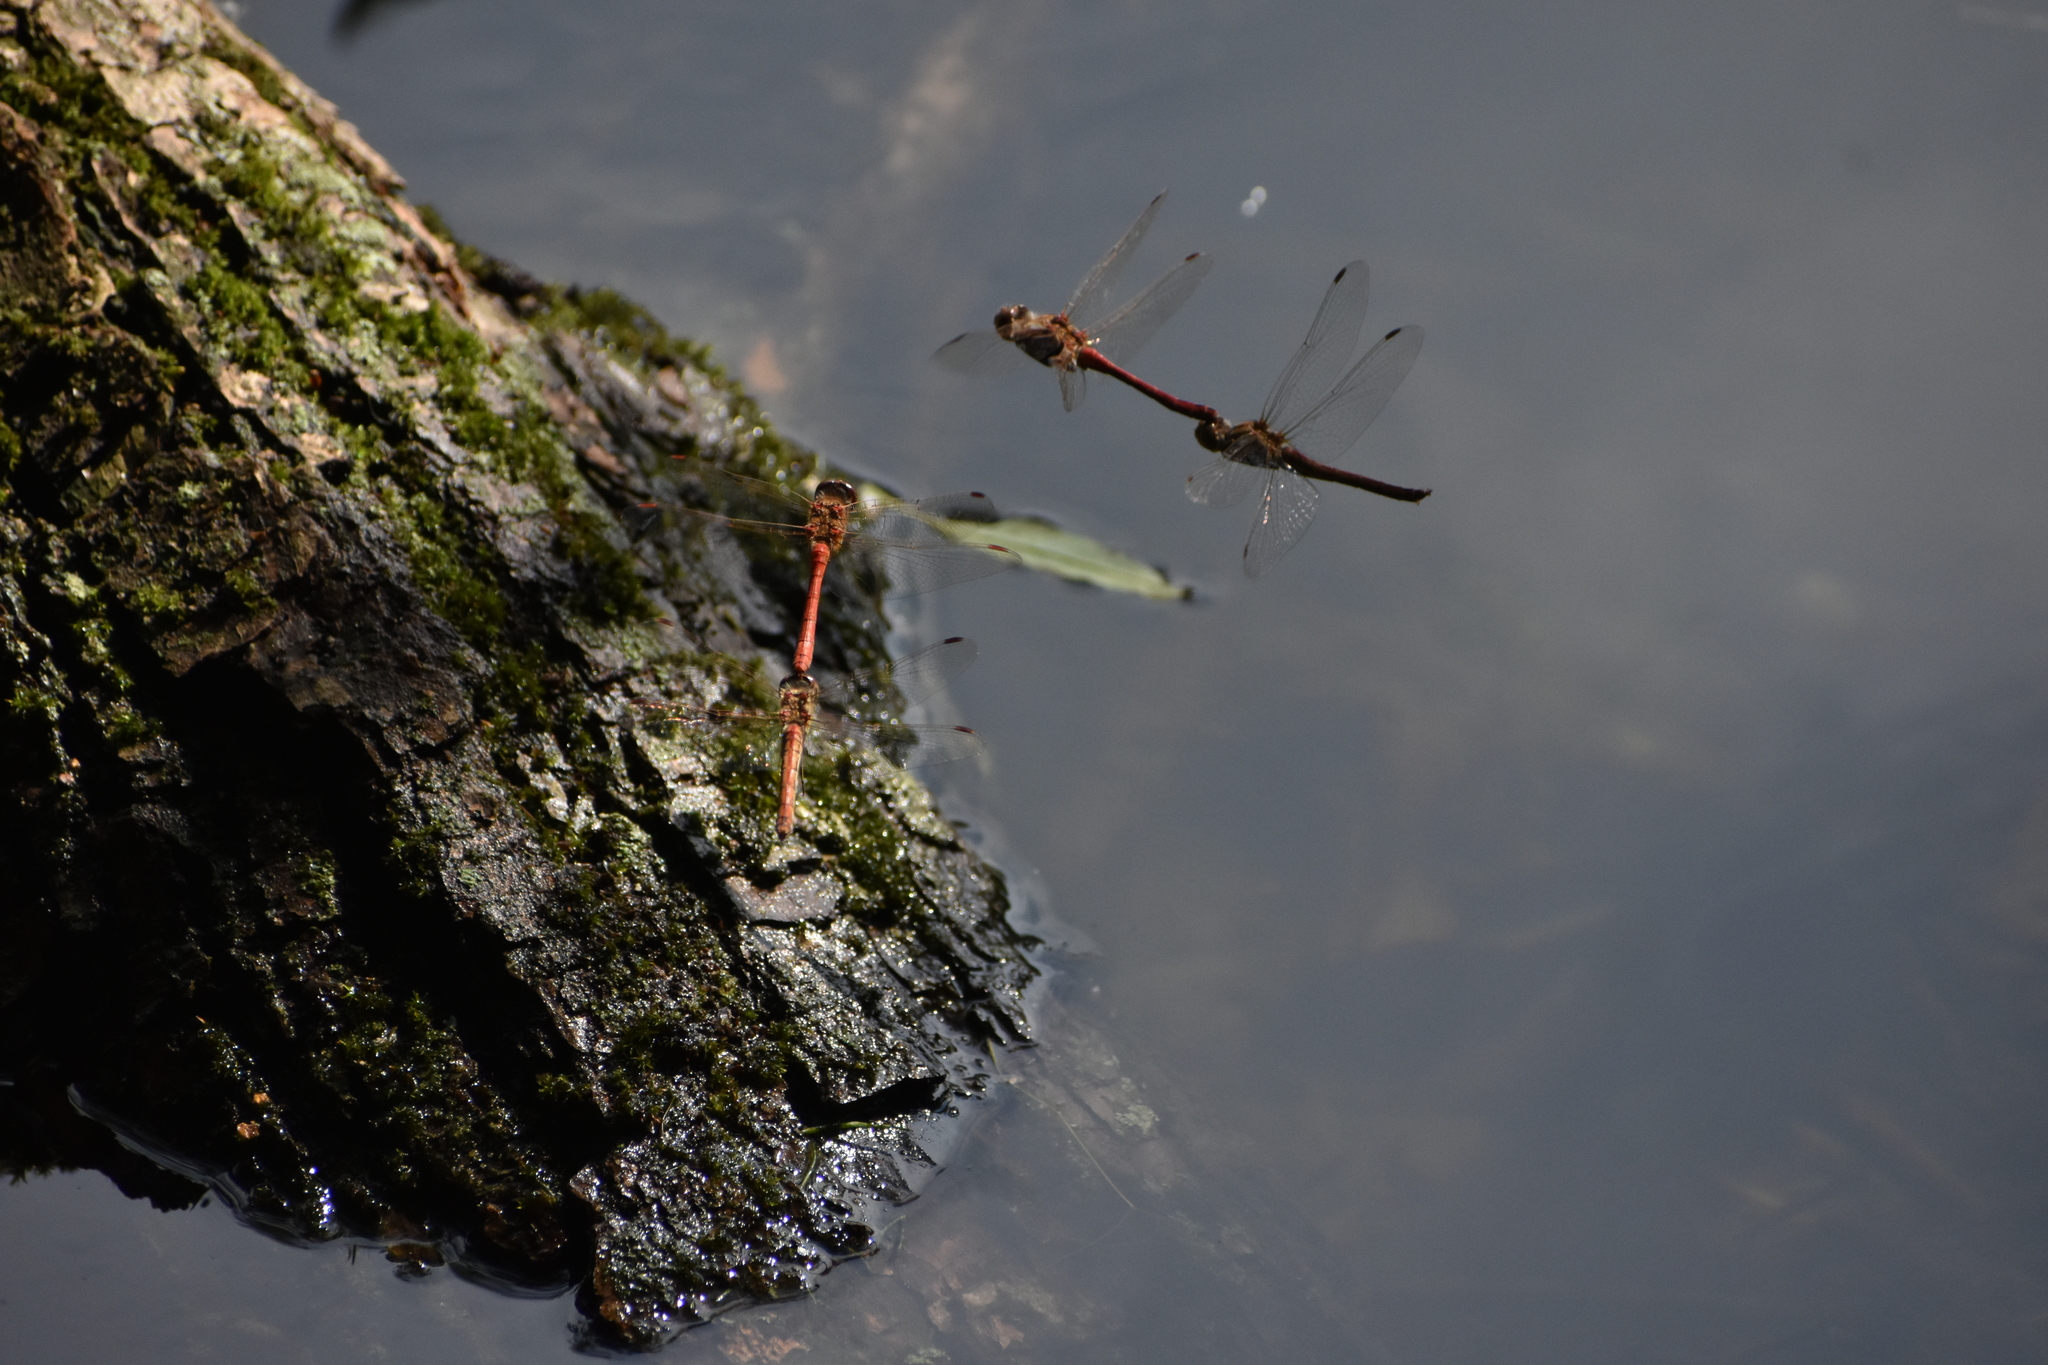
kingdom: Animalia
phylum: Arthropoda
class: Insecta
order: Odonata
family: Libellulidae
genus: Sympetrum
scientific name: Sympetrum vulgatum
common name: Vagrant darter
